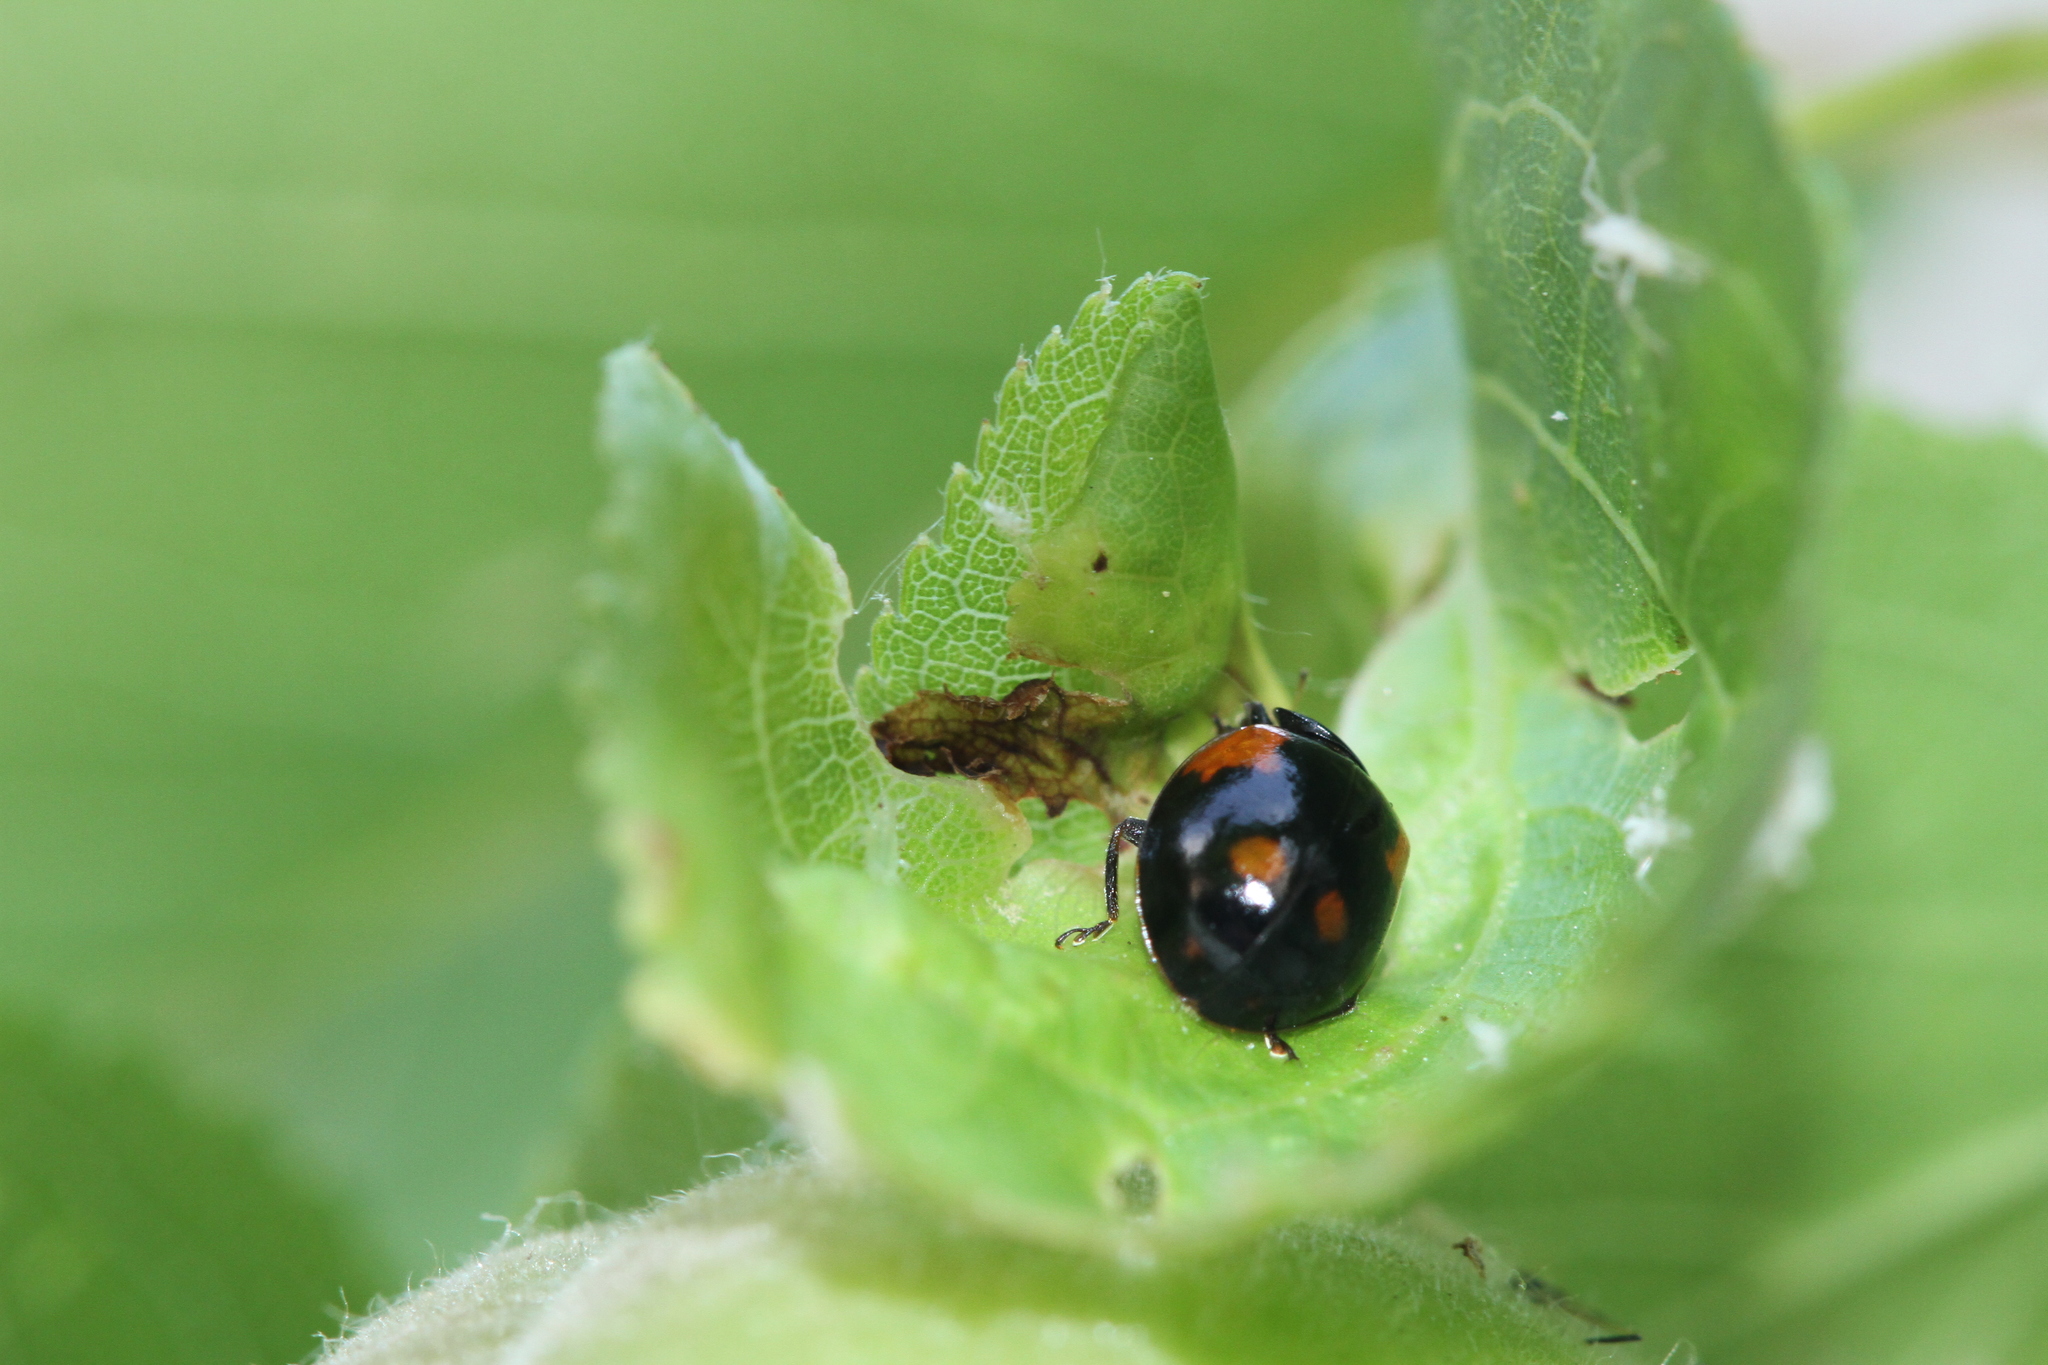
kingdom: Animalia
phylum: Arthropoda
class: Insecta
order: Coleoptera
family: Coccinellidae
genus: Adalia
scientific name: Adalia bipunctata
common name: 2-spot ladybird
